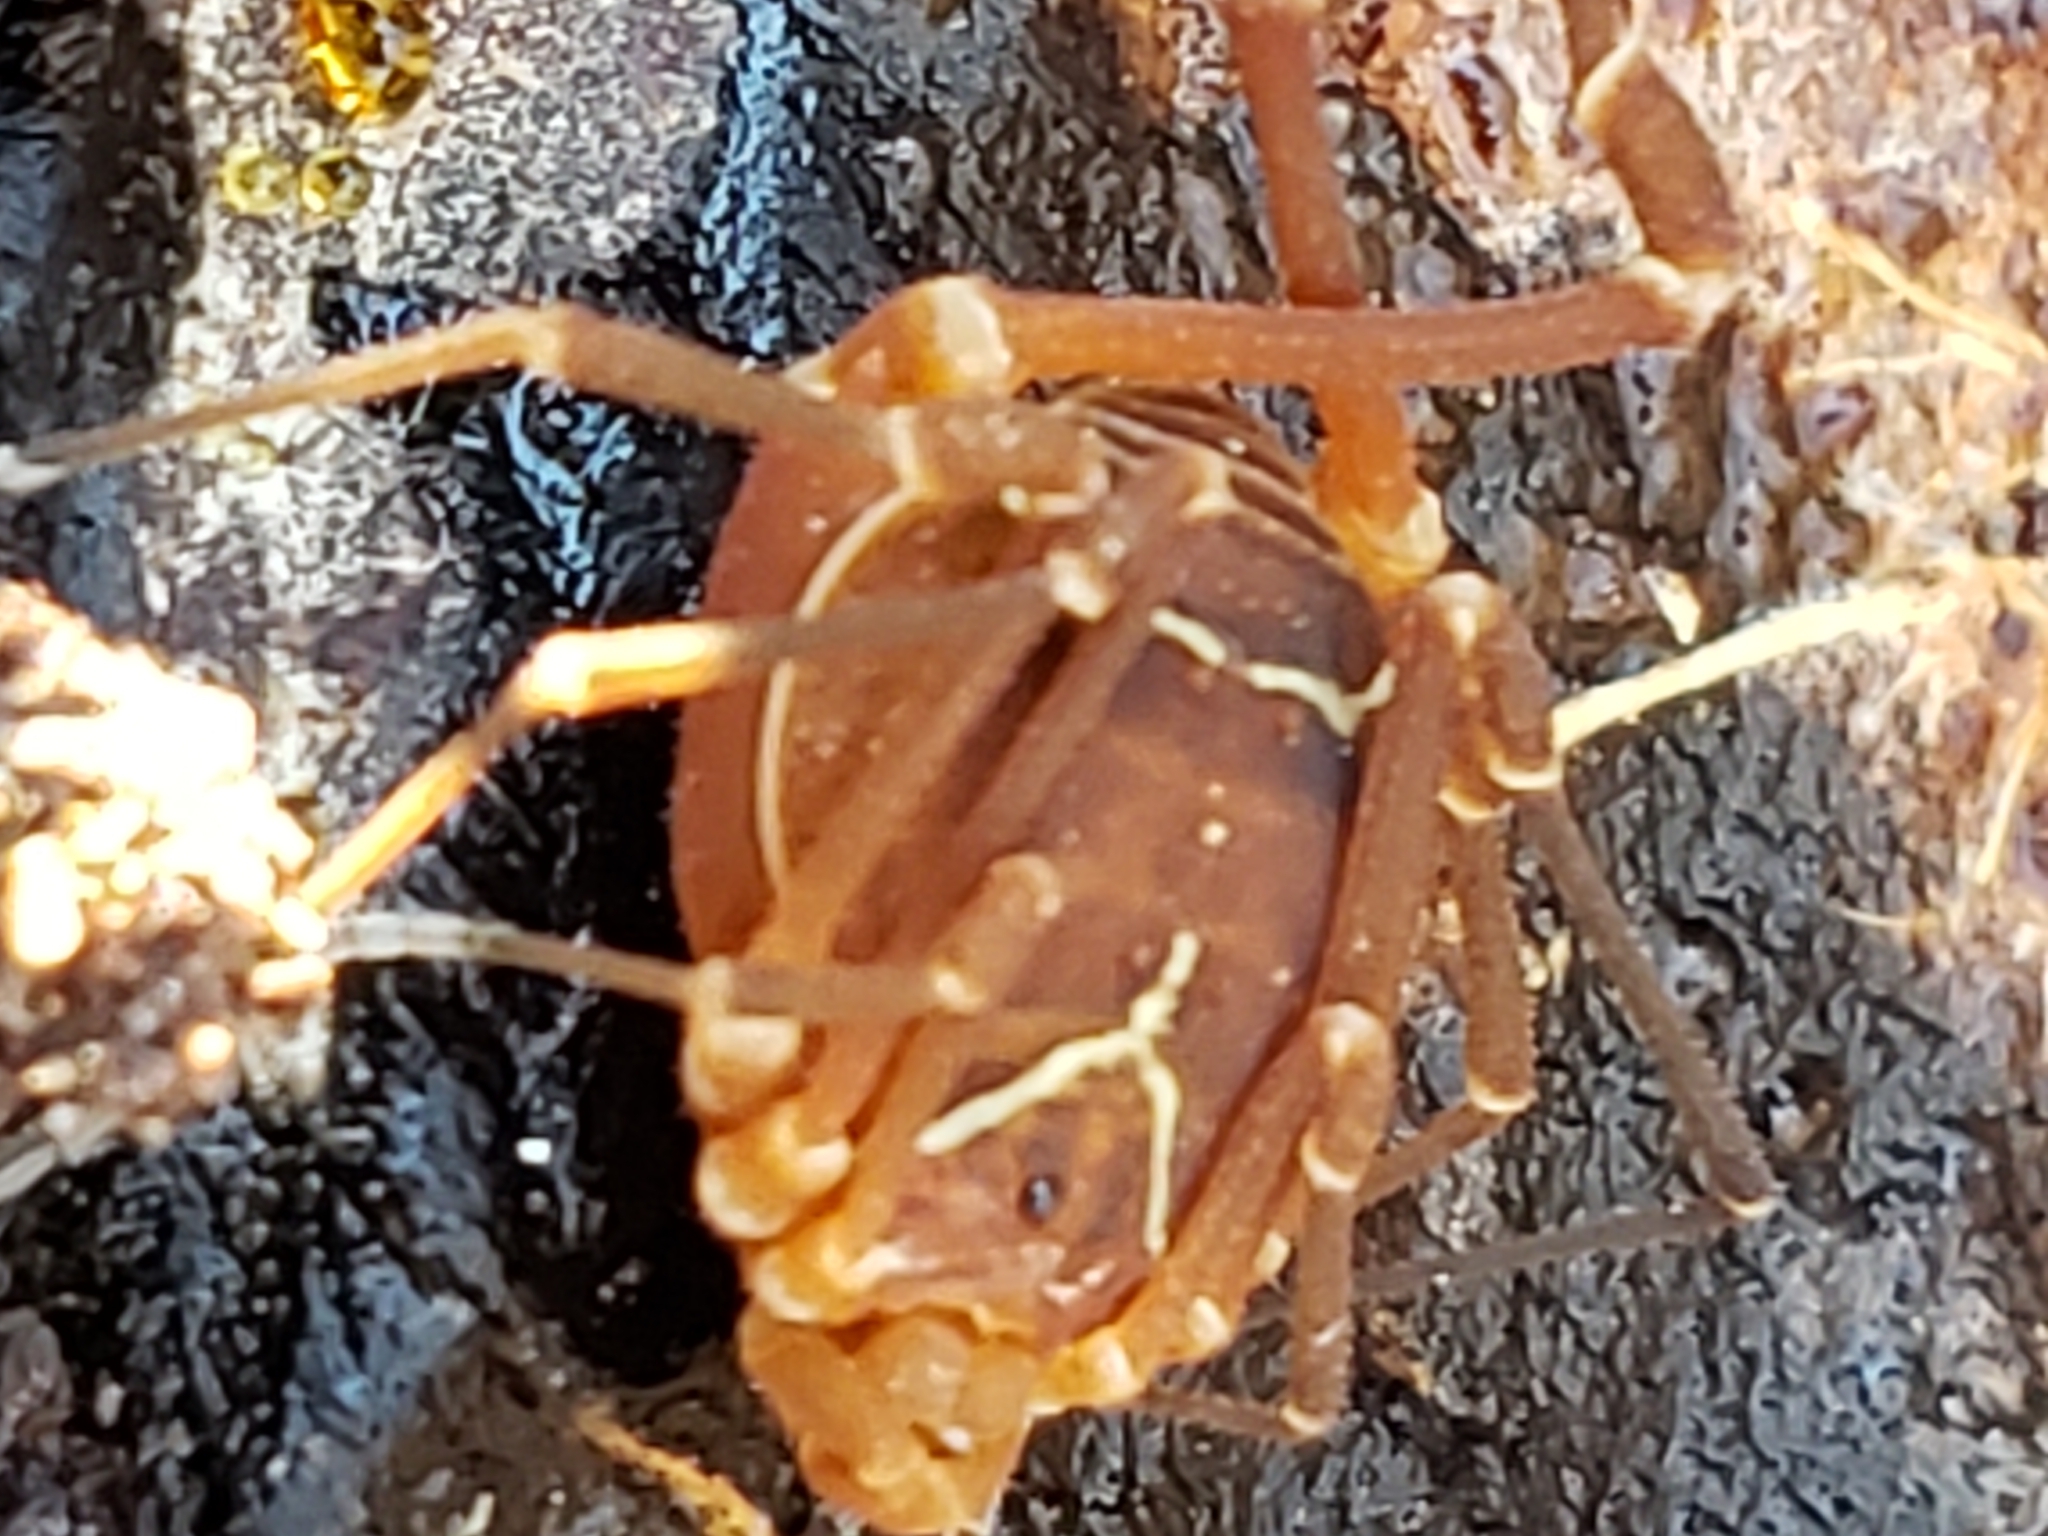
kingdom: Animalia
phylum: Arthropoda
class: Arachnida
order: Opiliones
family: Cosmetidae
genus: Libitioides
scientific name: Libitioides sayi
